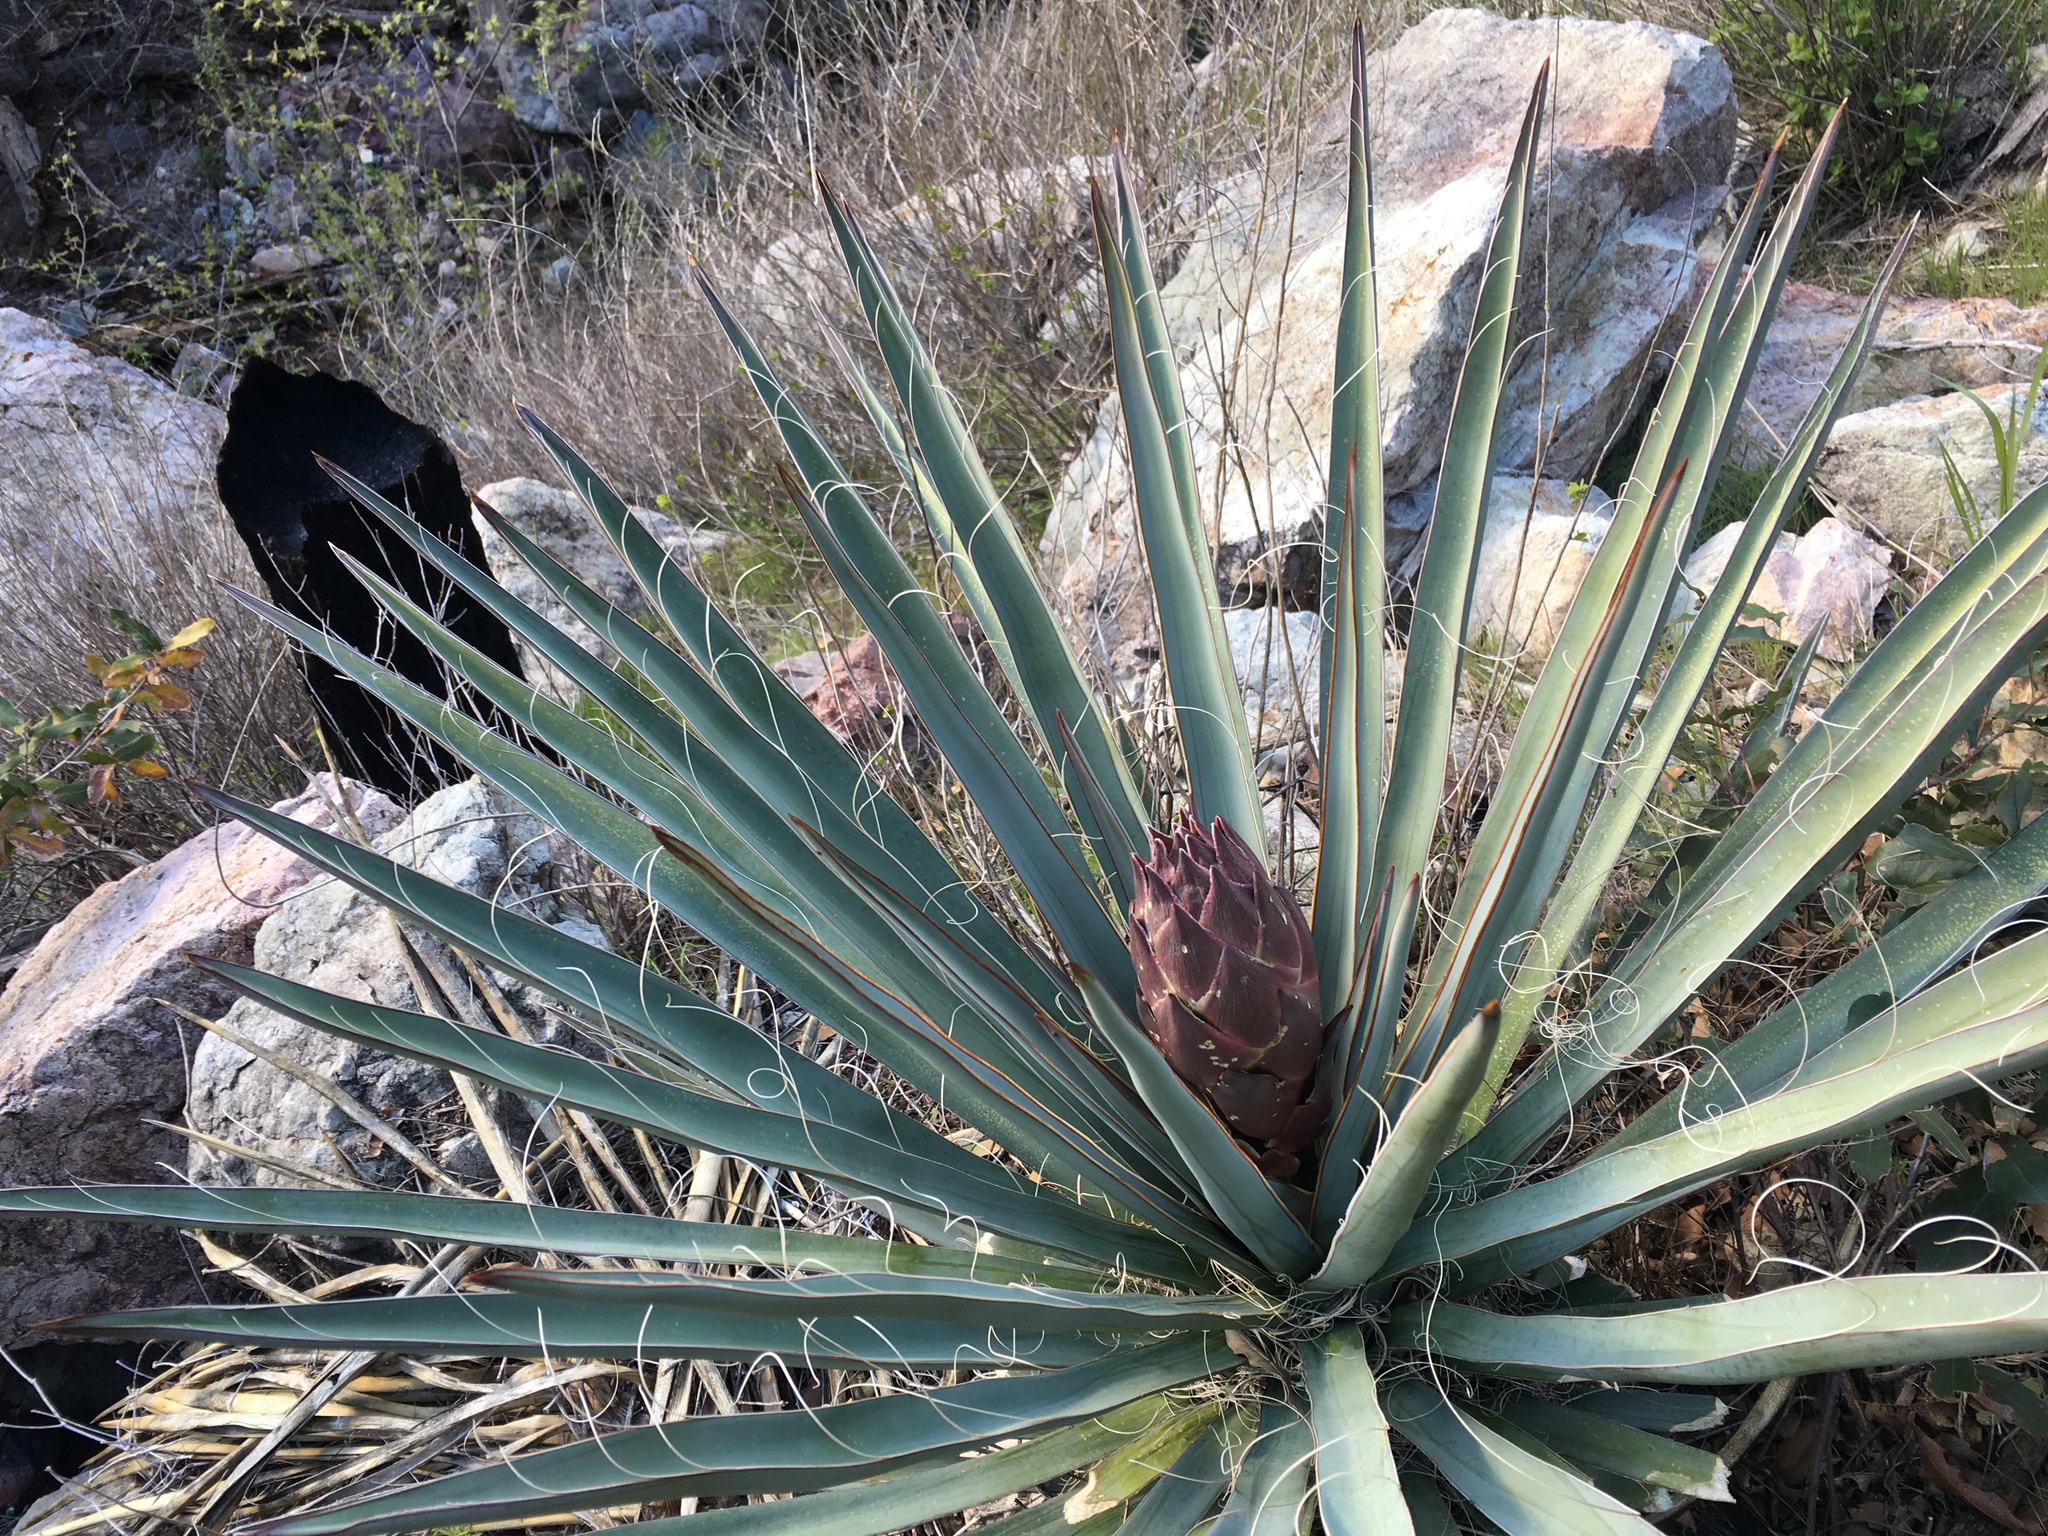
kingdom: Plantae
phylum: Tracheophyta
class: Liliopsida
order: Asparagales
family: Asparagaceae
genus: Yucca
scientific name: Yucca baccata
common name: Banana yucca
